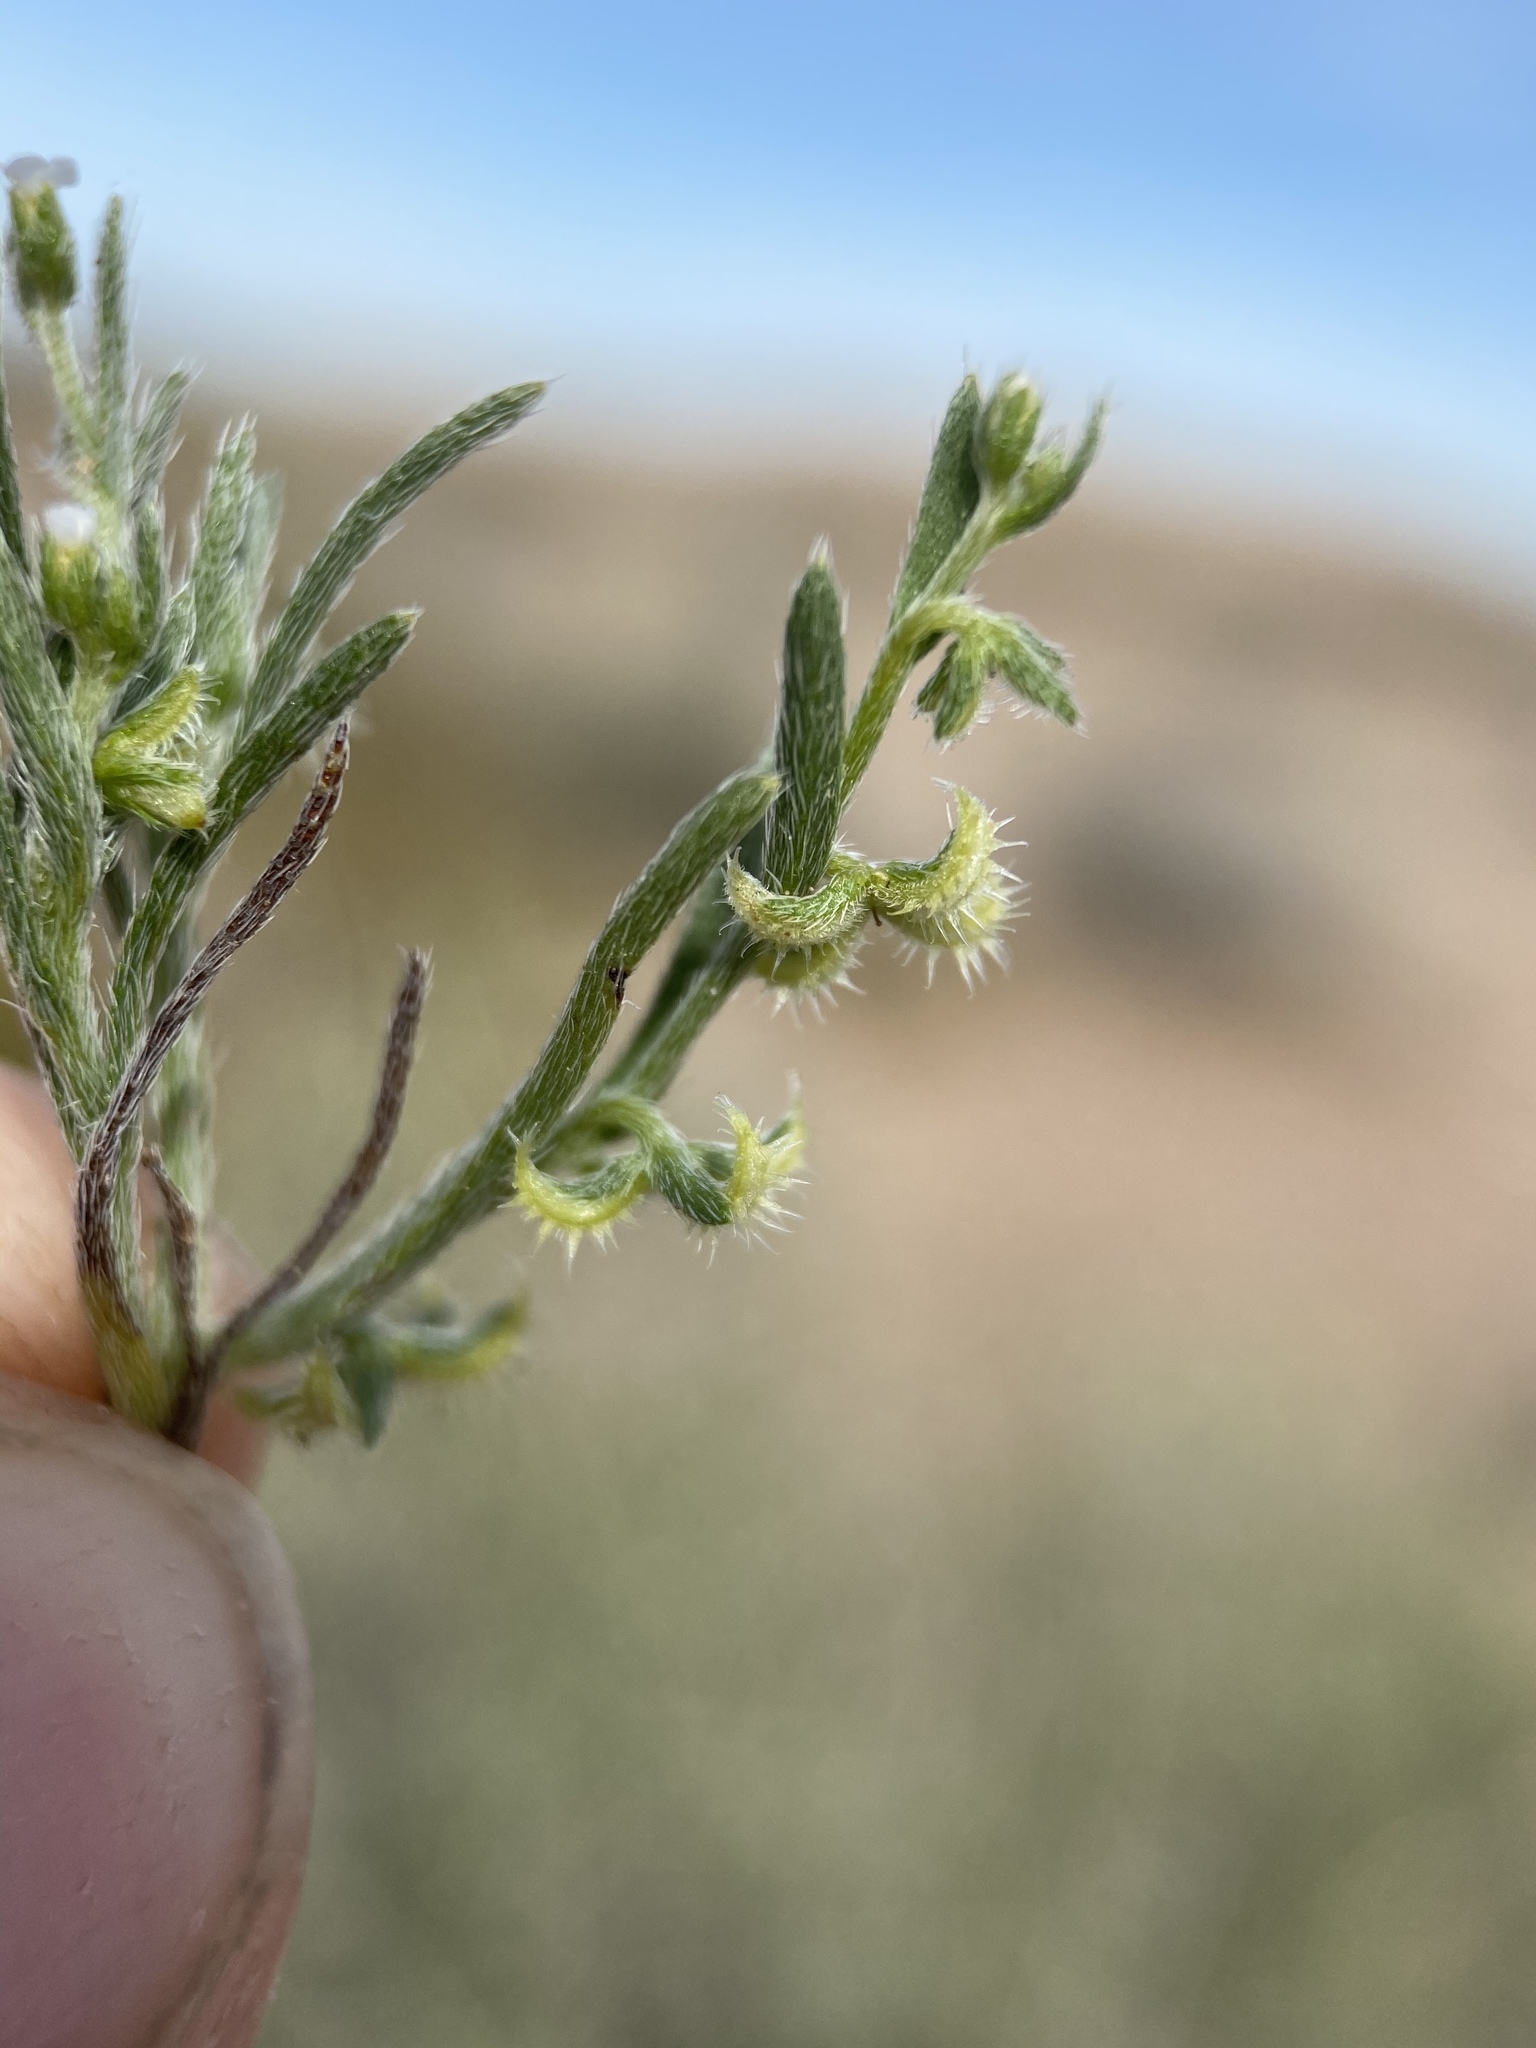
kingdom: Plantae
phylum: Tracheophyta
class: Magnoliopsida
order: Boraginales
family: Boraginaceae
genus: Pectocarya
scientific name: Pectocarya recurvata
